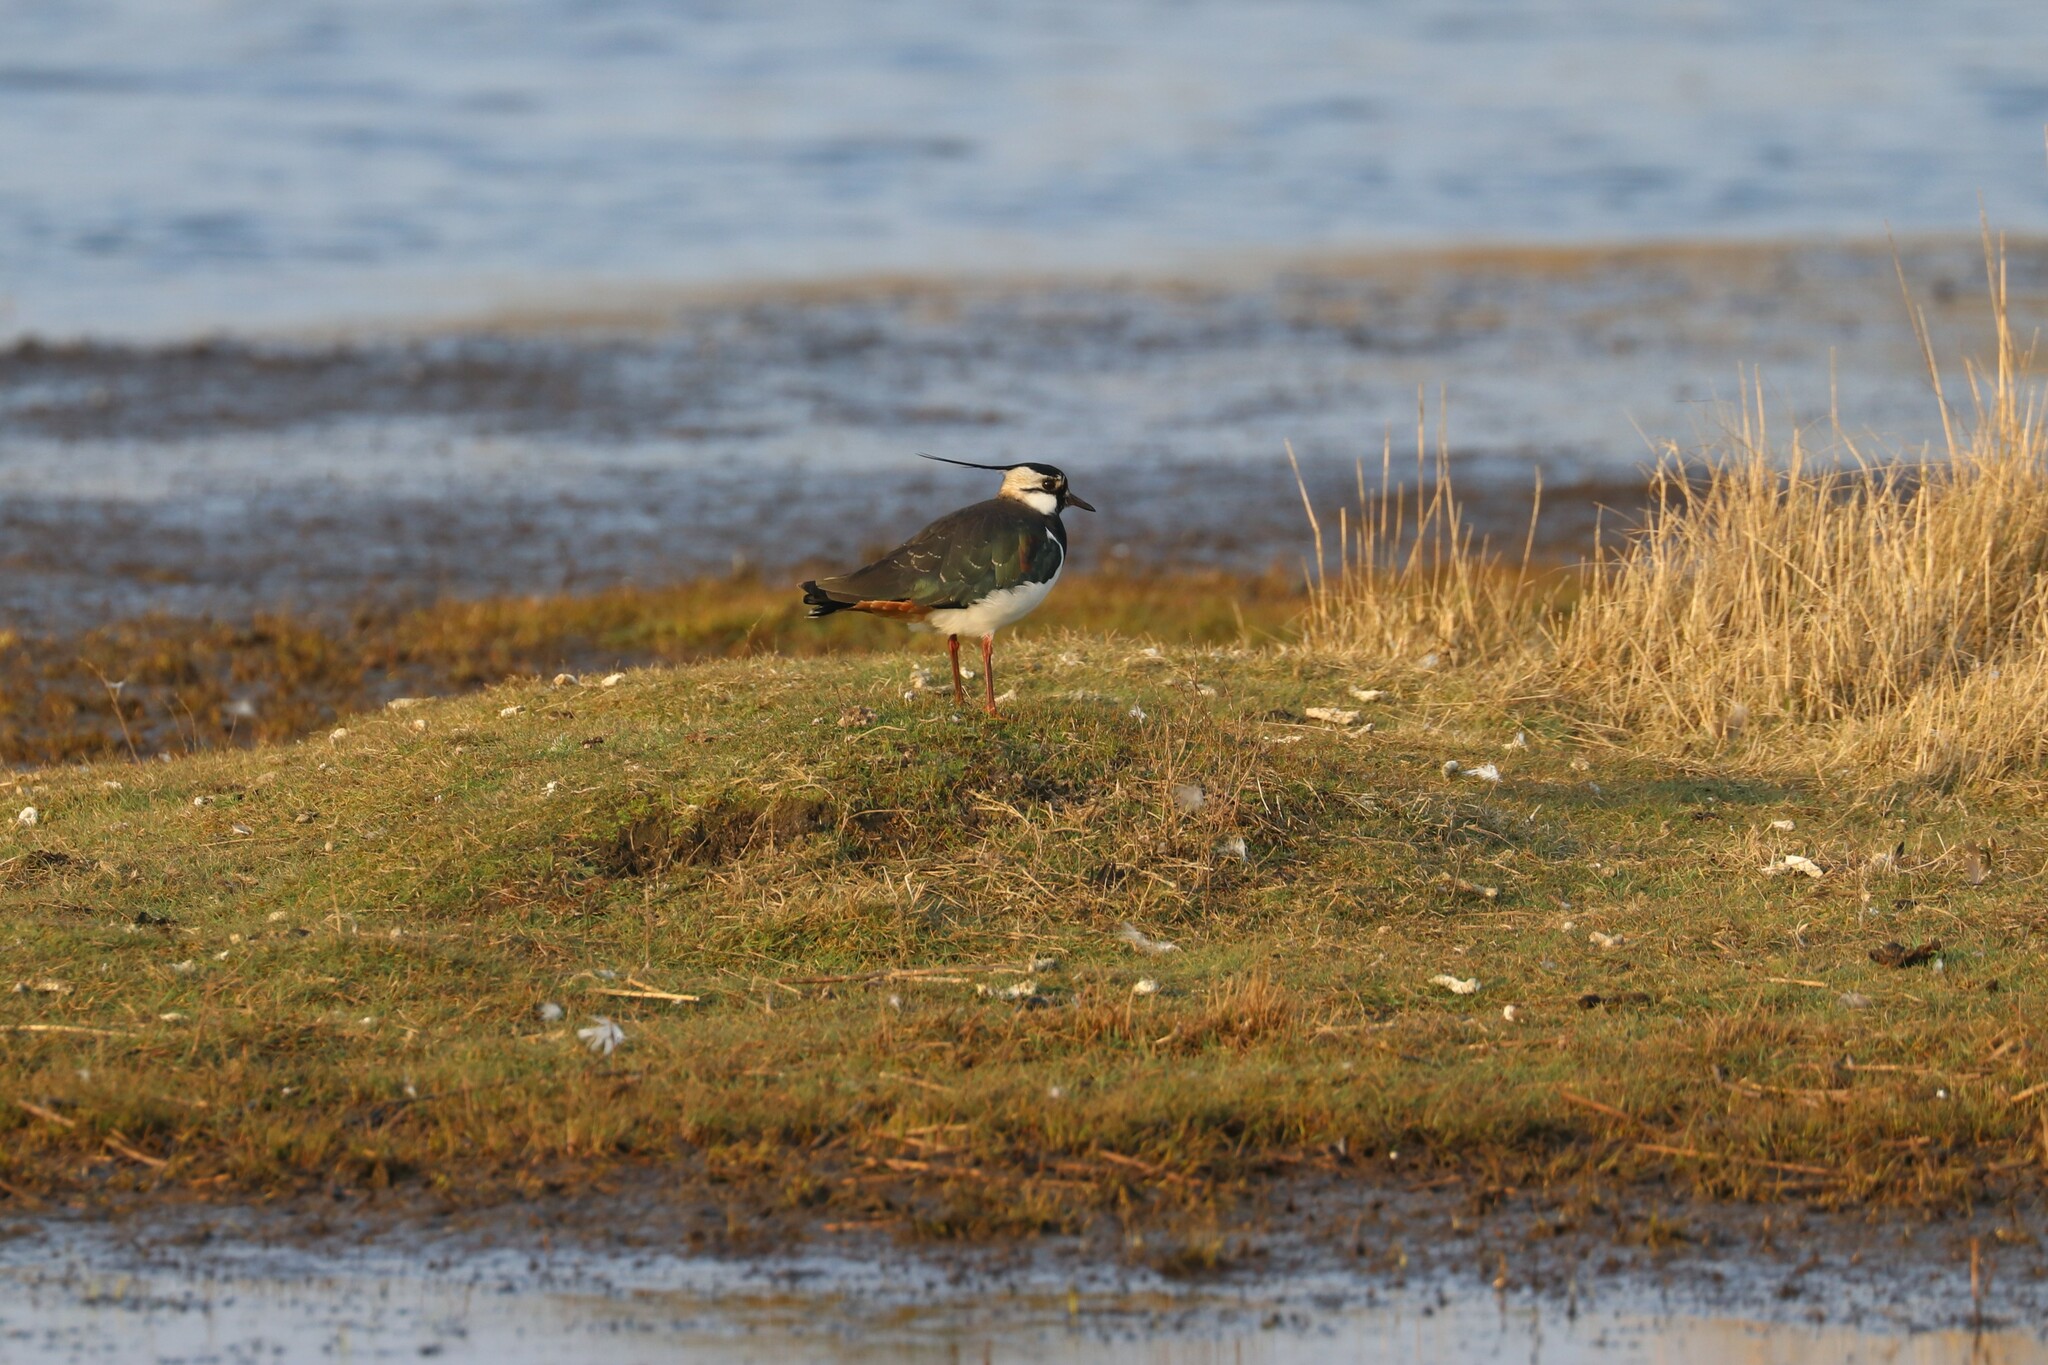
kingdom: Animalia
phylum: Chordata
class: Aves
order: Charadriiformes
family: Charadriidae
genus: Vanellus
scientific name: Vanellus vanellus
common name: Northern lapwing
